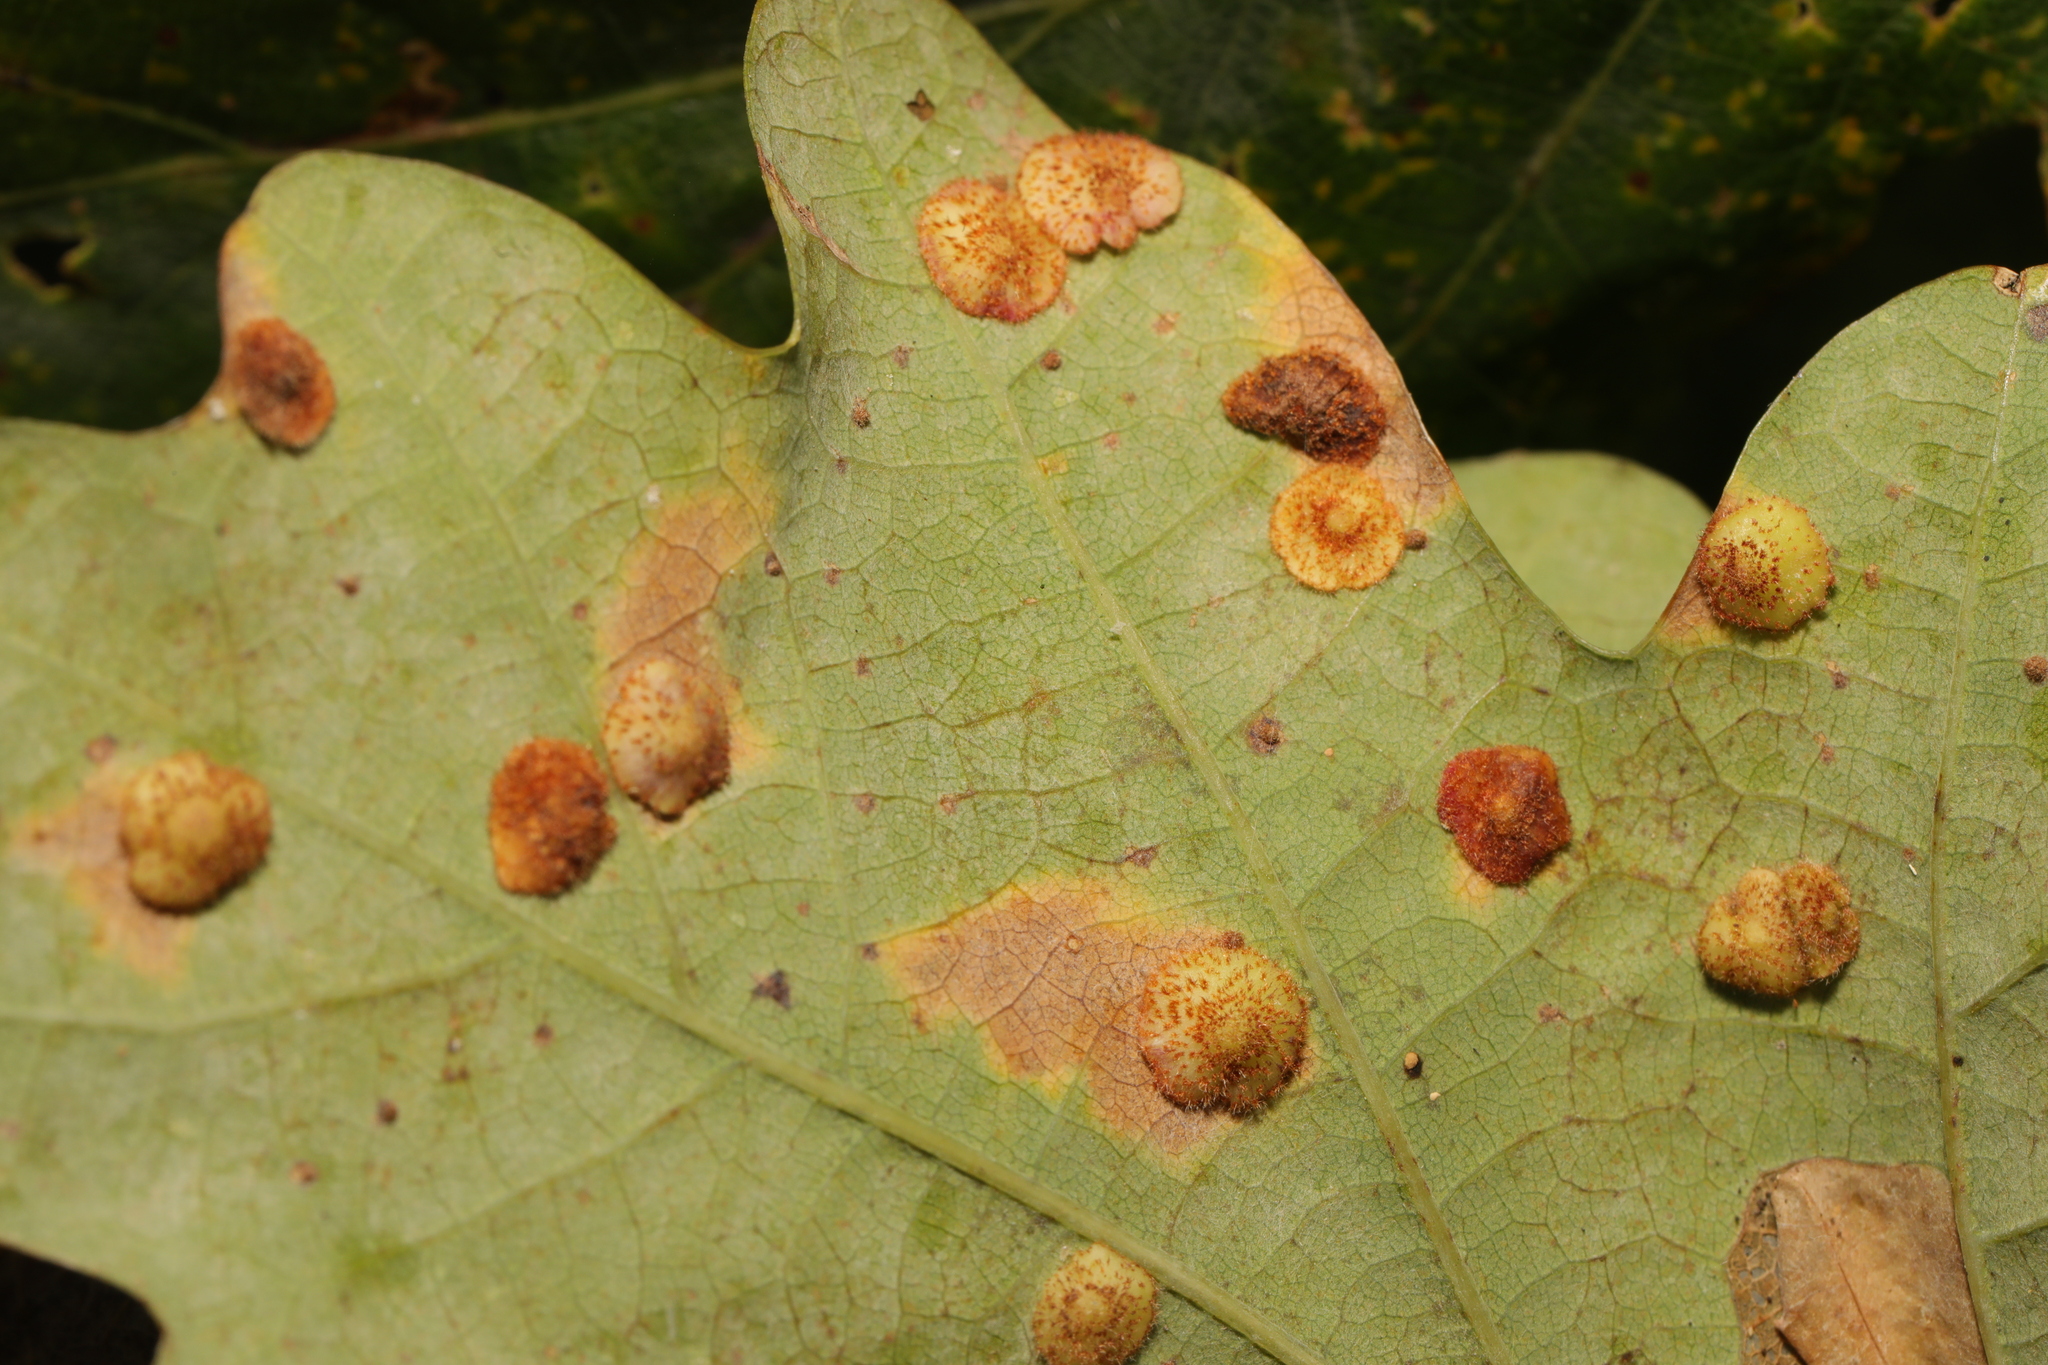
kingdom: Animalia
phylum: Arthropoda
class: Insecta
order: Hymenoptera
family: Cynipidae
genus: Neuroterus
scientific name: Neuroterus quercusbaccarum
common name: Common spangle gall
